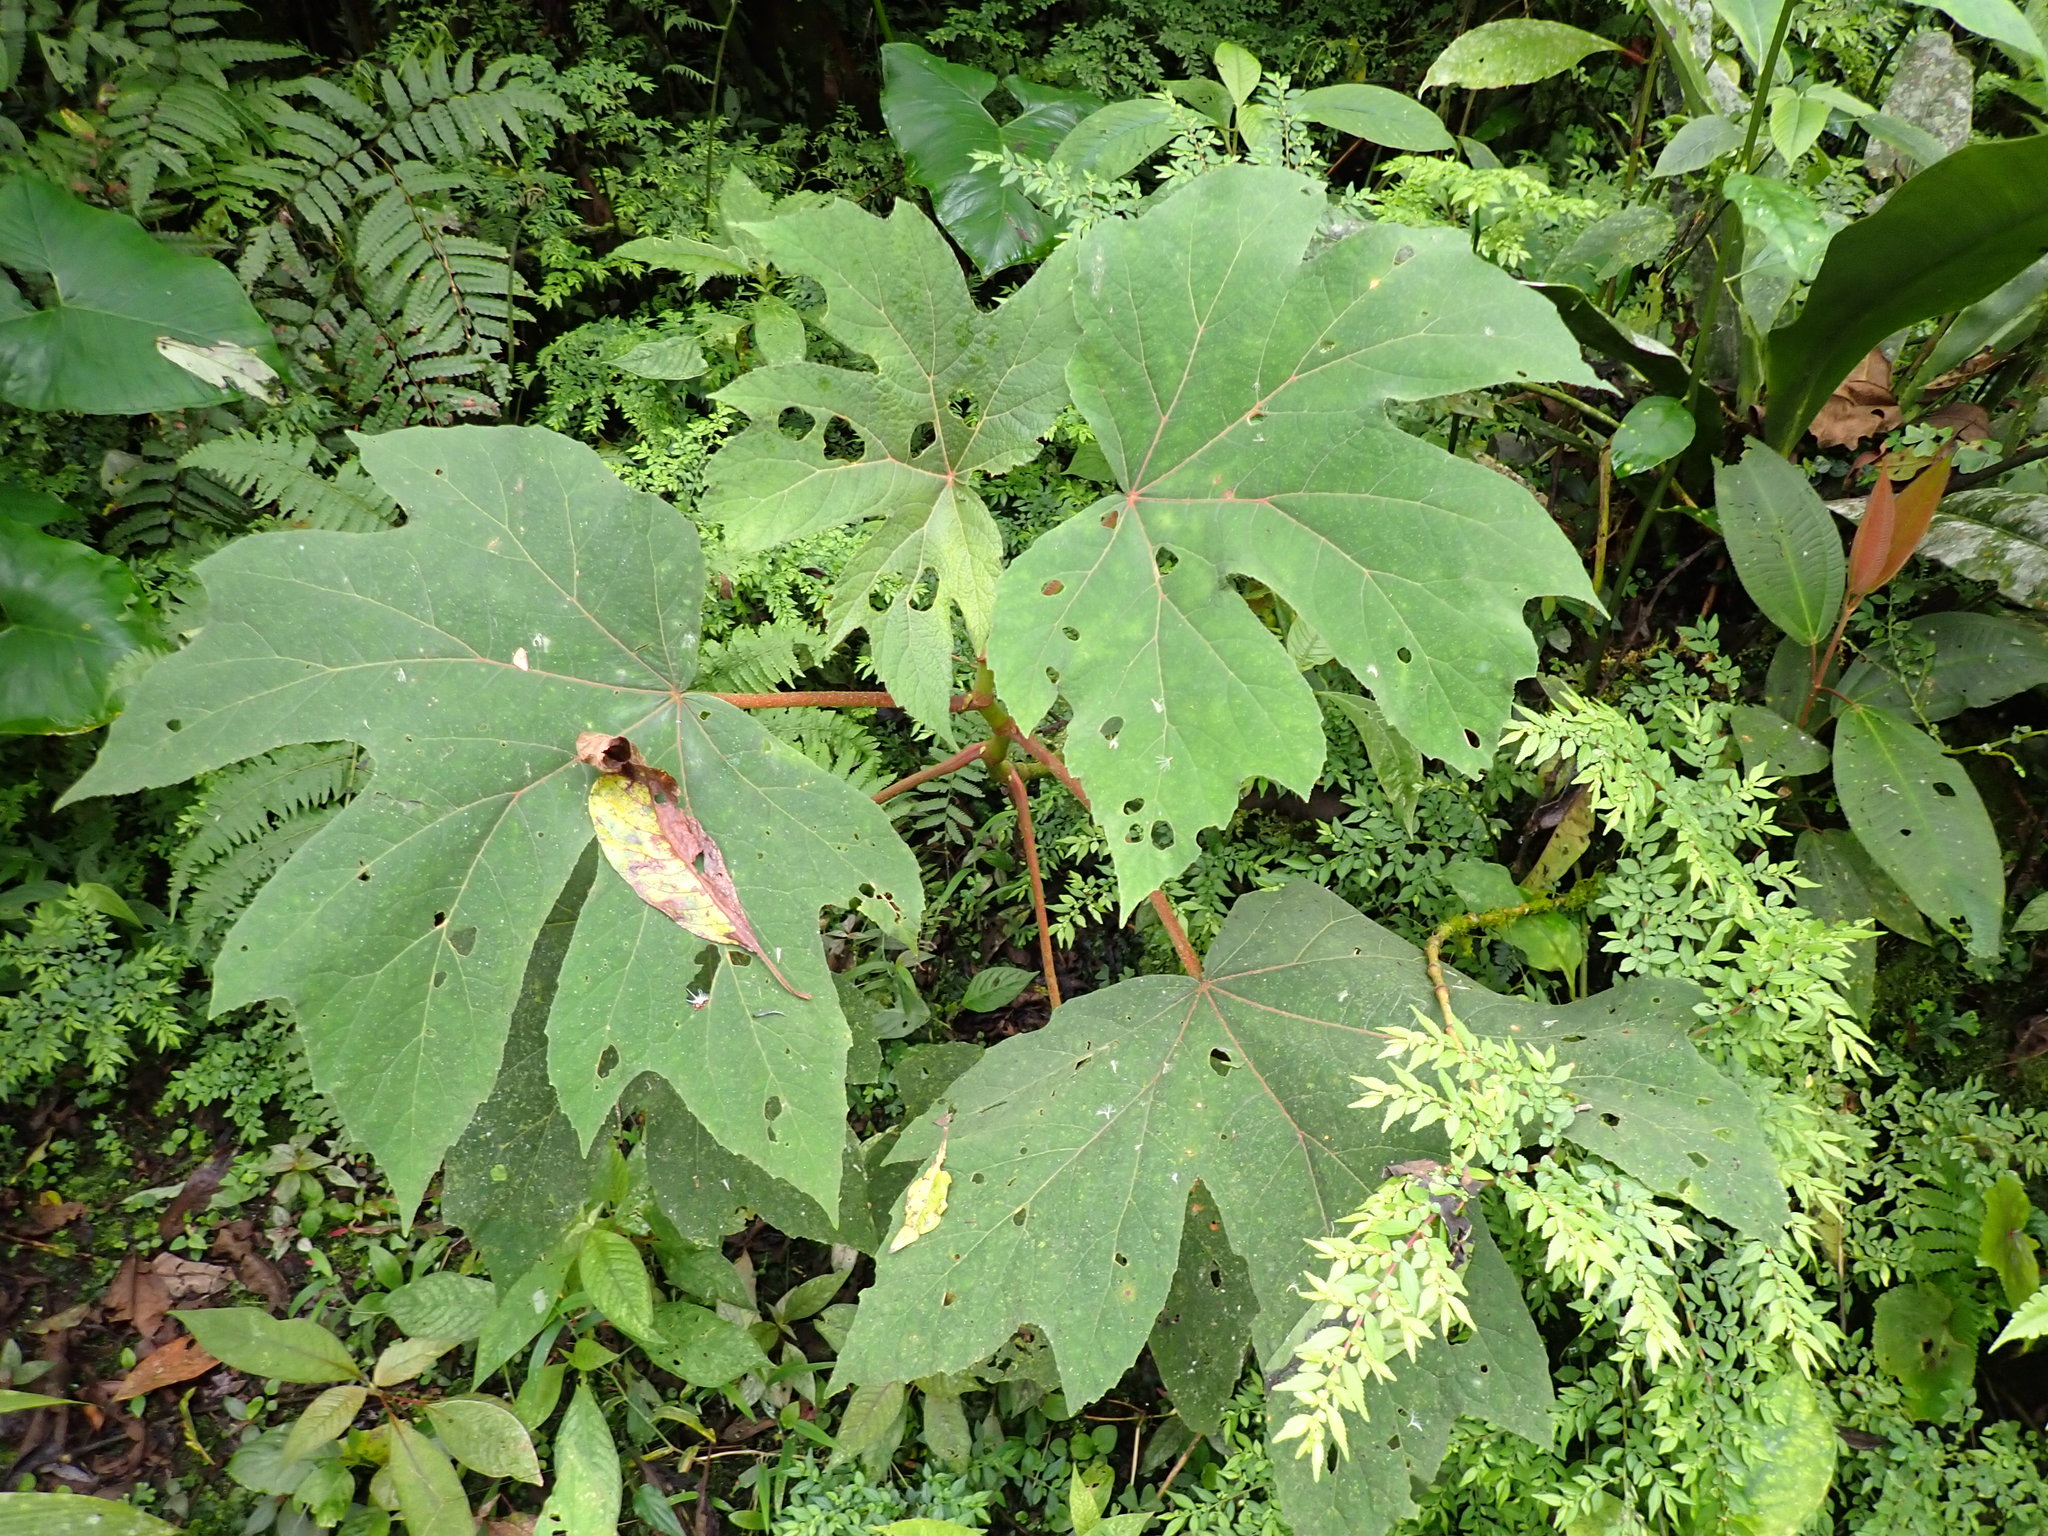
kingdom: Plantae
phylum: Tracheophyta
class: Magnoliopsida
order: Cucurbitales
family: Begoniaceae
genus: Begonia
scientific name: Begonia parviflora
